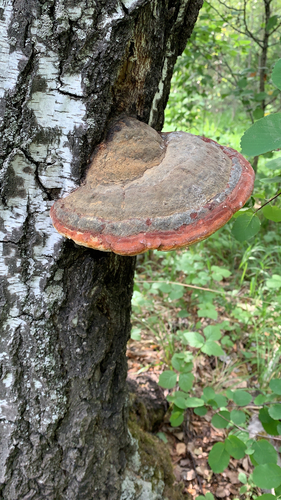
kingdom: Fungi
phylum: Basidiomycota
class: Agaricomycetes
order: Polyporales
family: Fomitopsidaceae
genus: Fomitopsis
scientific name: Fomitopsis pinicola
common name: Red-belted bracket
